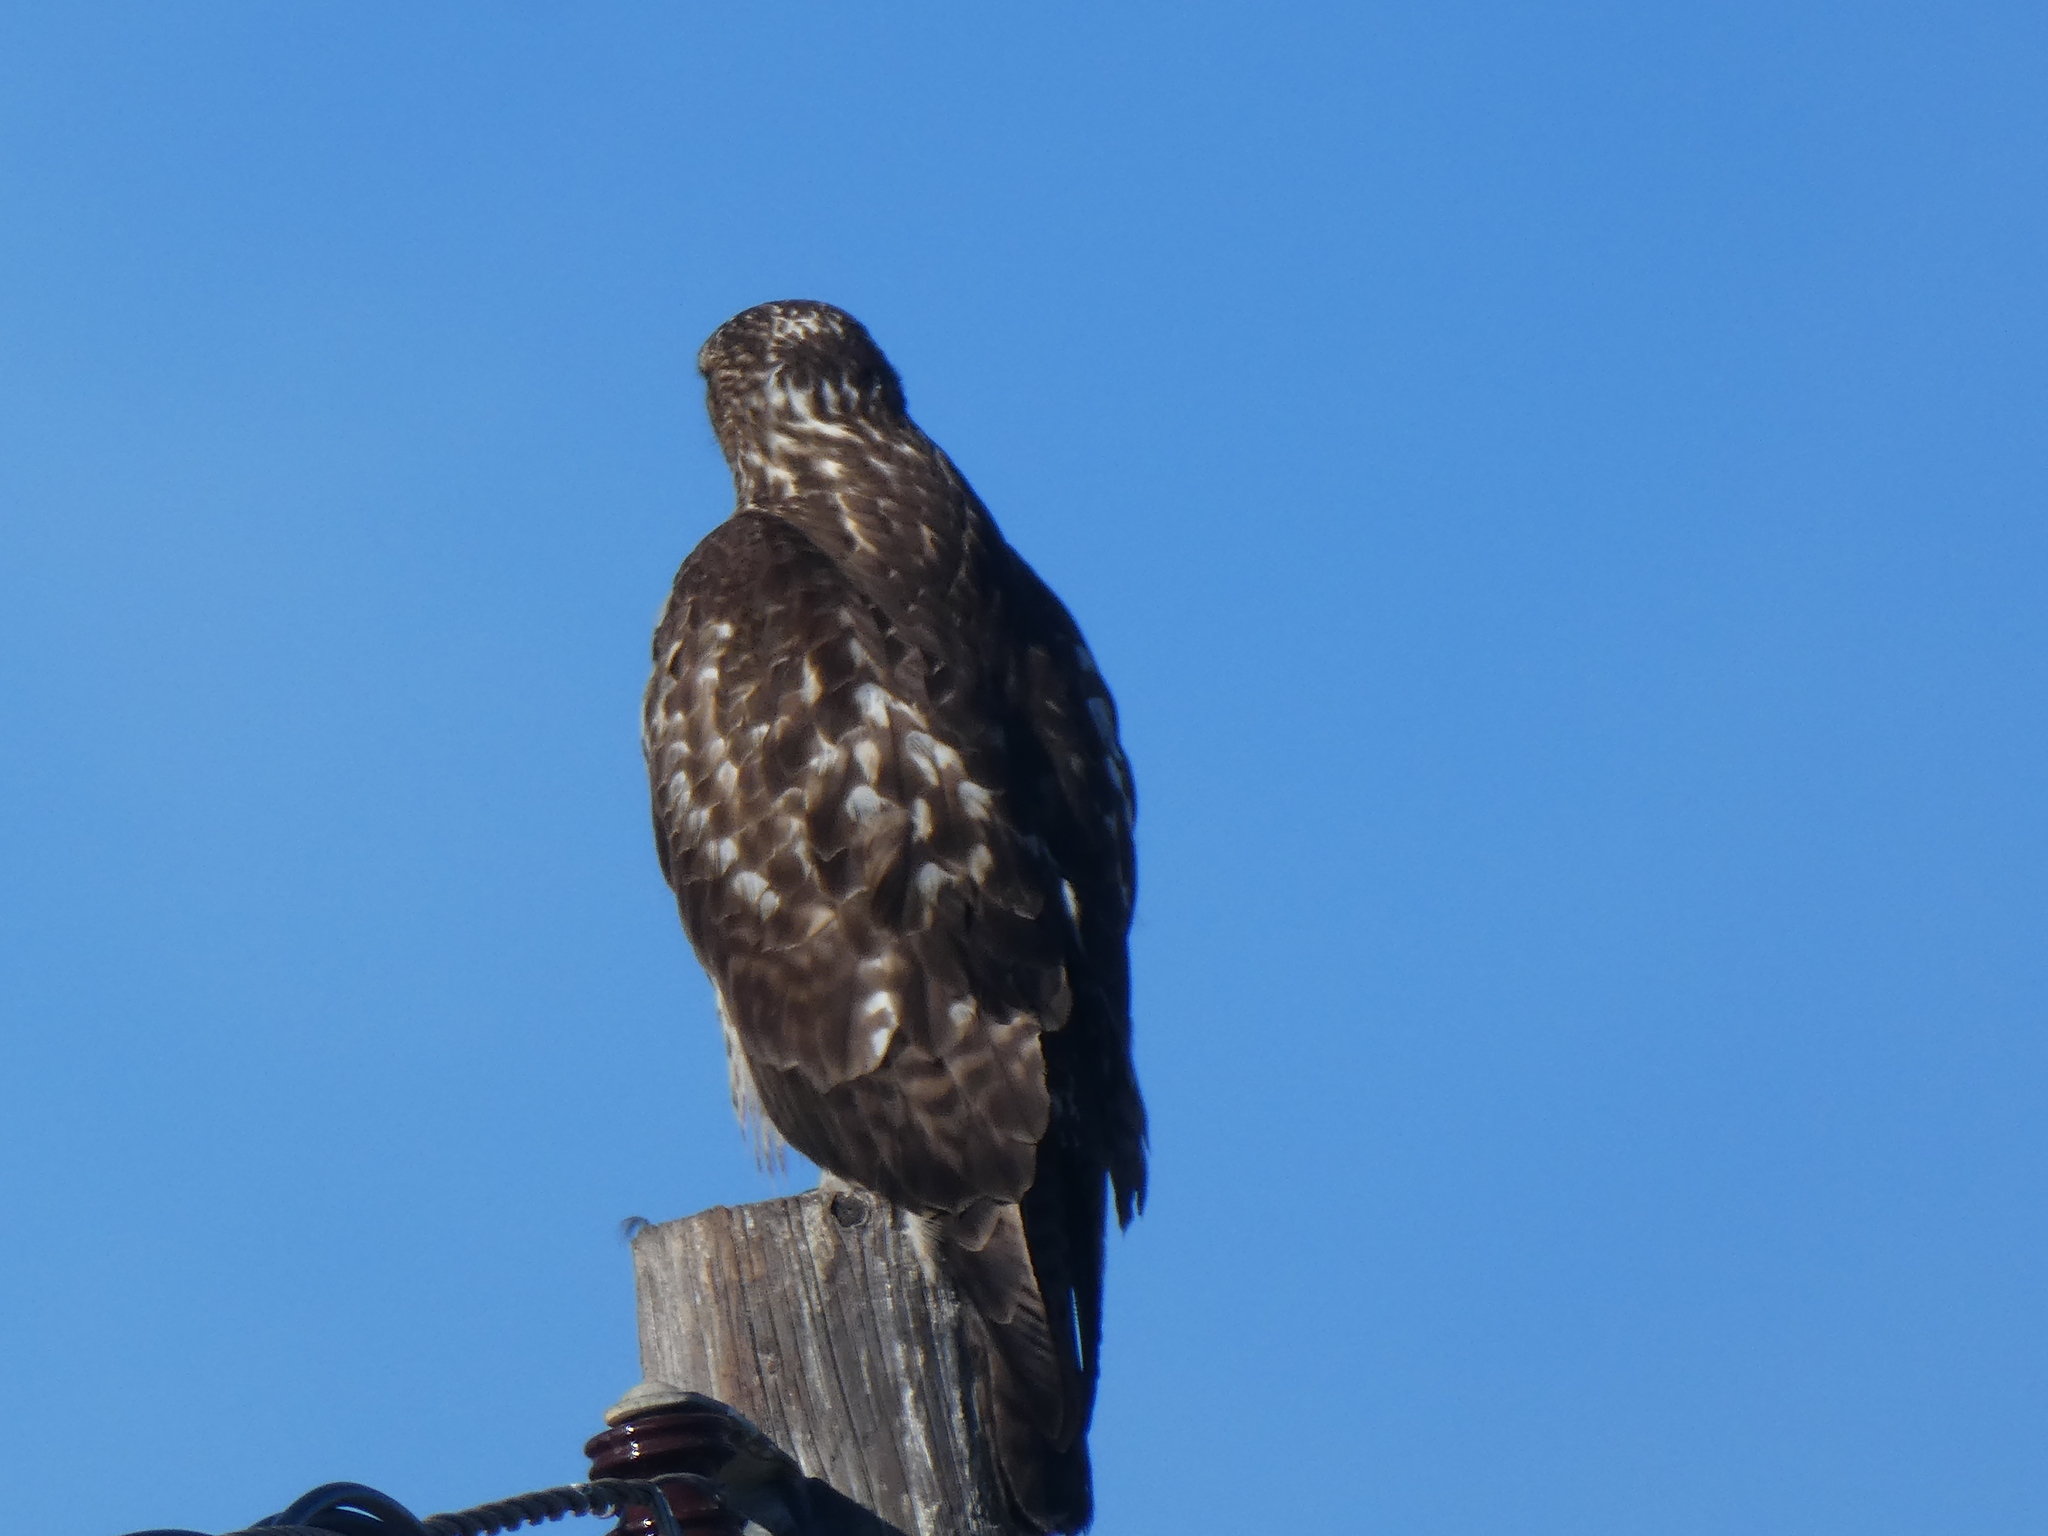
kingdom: Animalia
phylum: Chordata
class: Aves
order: Accipitriformes
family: Accipitridae
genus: Buteo
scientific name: Buteo jamaicensis
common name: Red-tailed hawk
